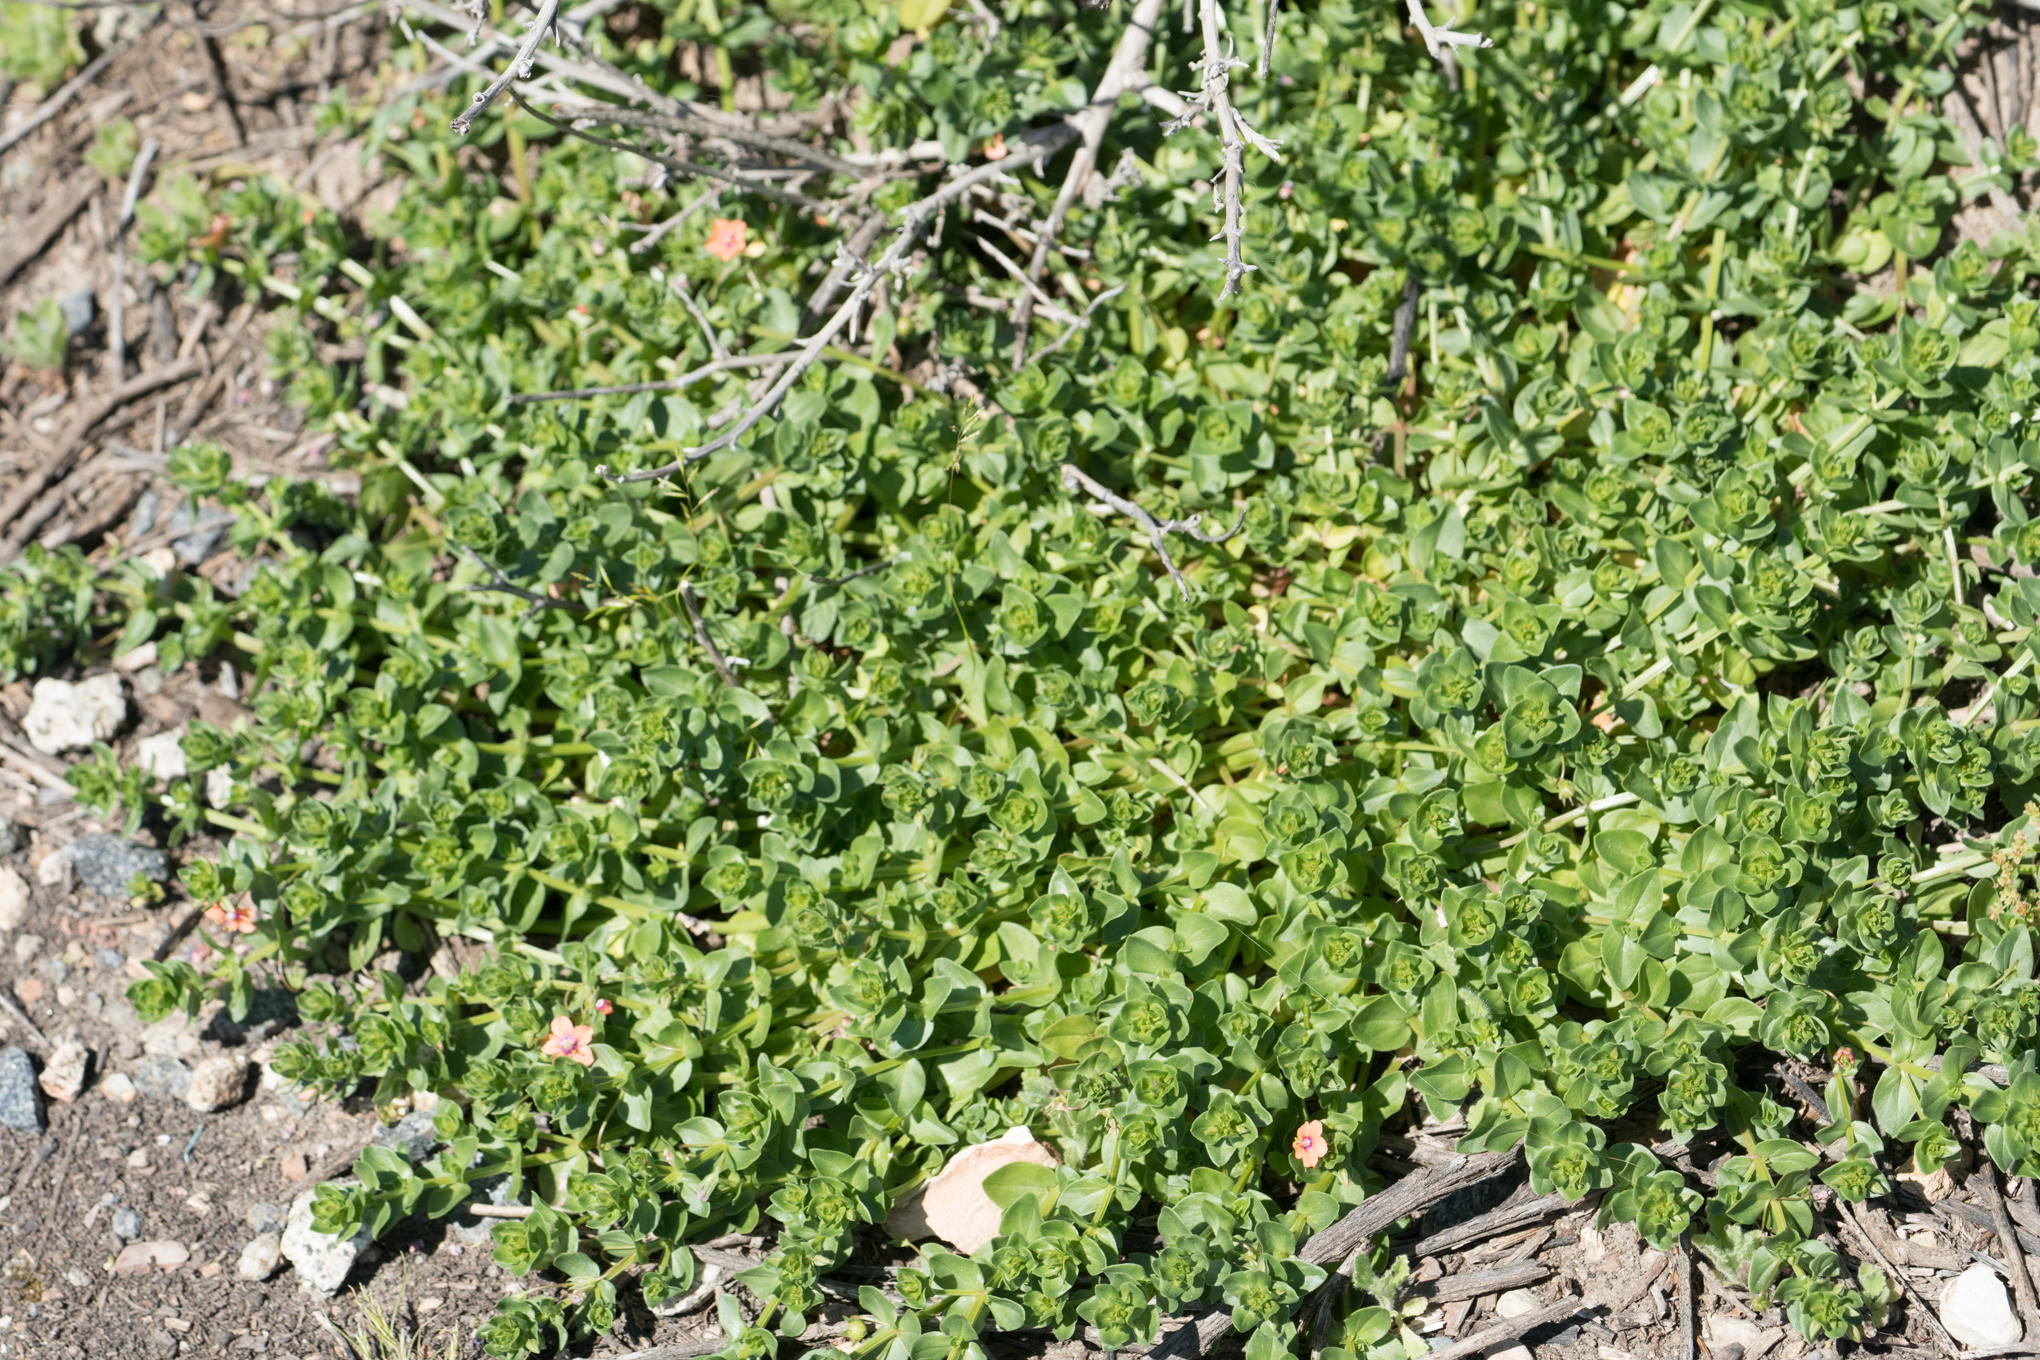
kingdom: Plantae
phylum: Tracheophyta
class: Magnoliopsida
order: Ericales
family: Primulaceae
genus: Lysimachia
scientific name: Lysimachia arvensis
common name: Scarlet pimpernel
